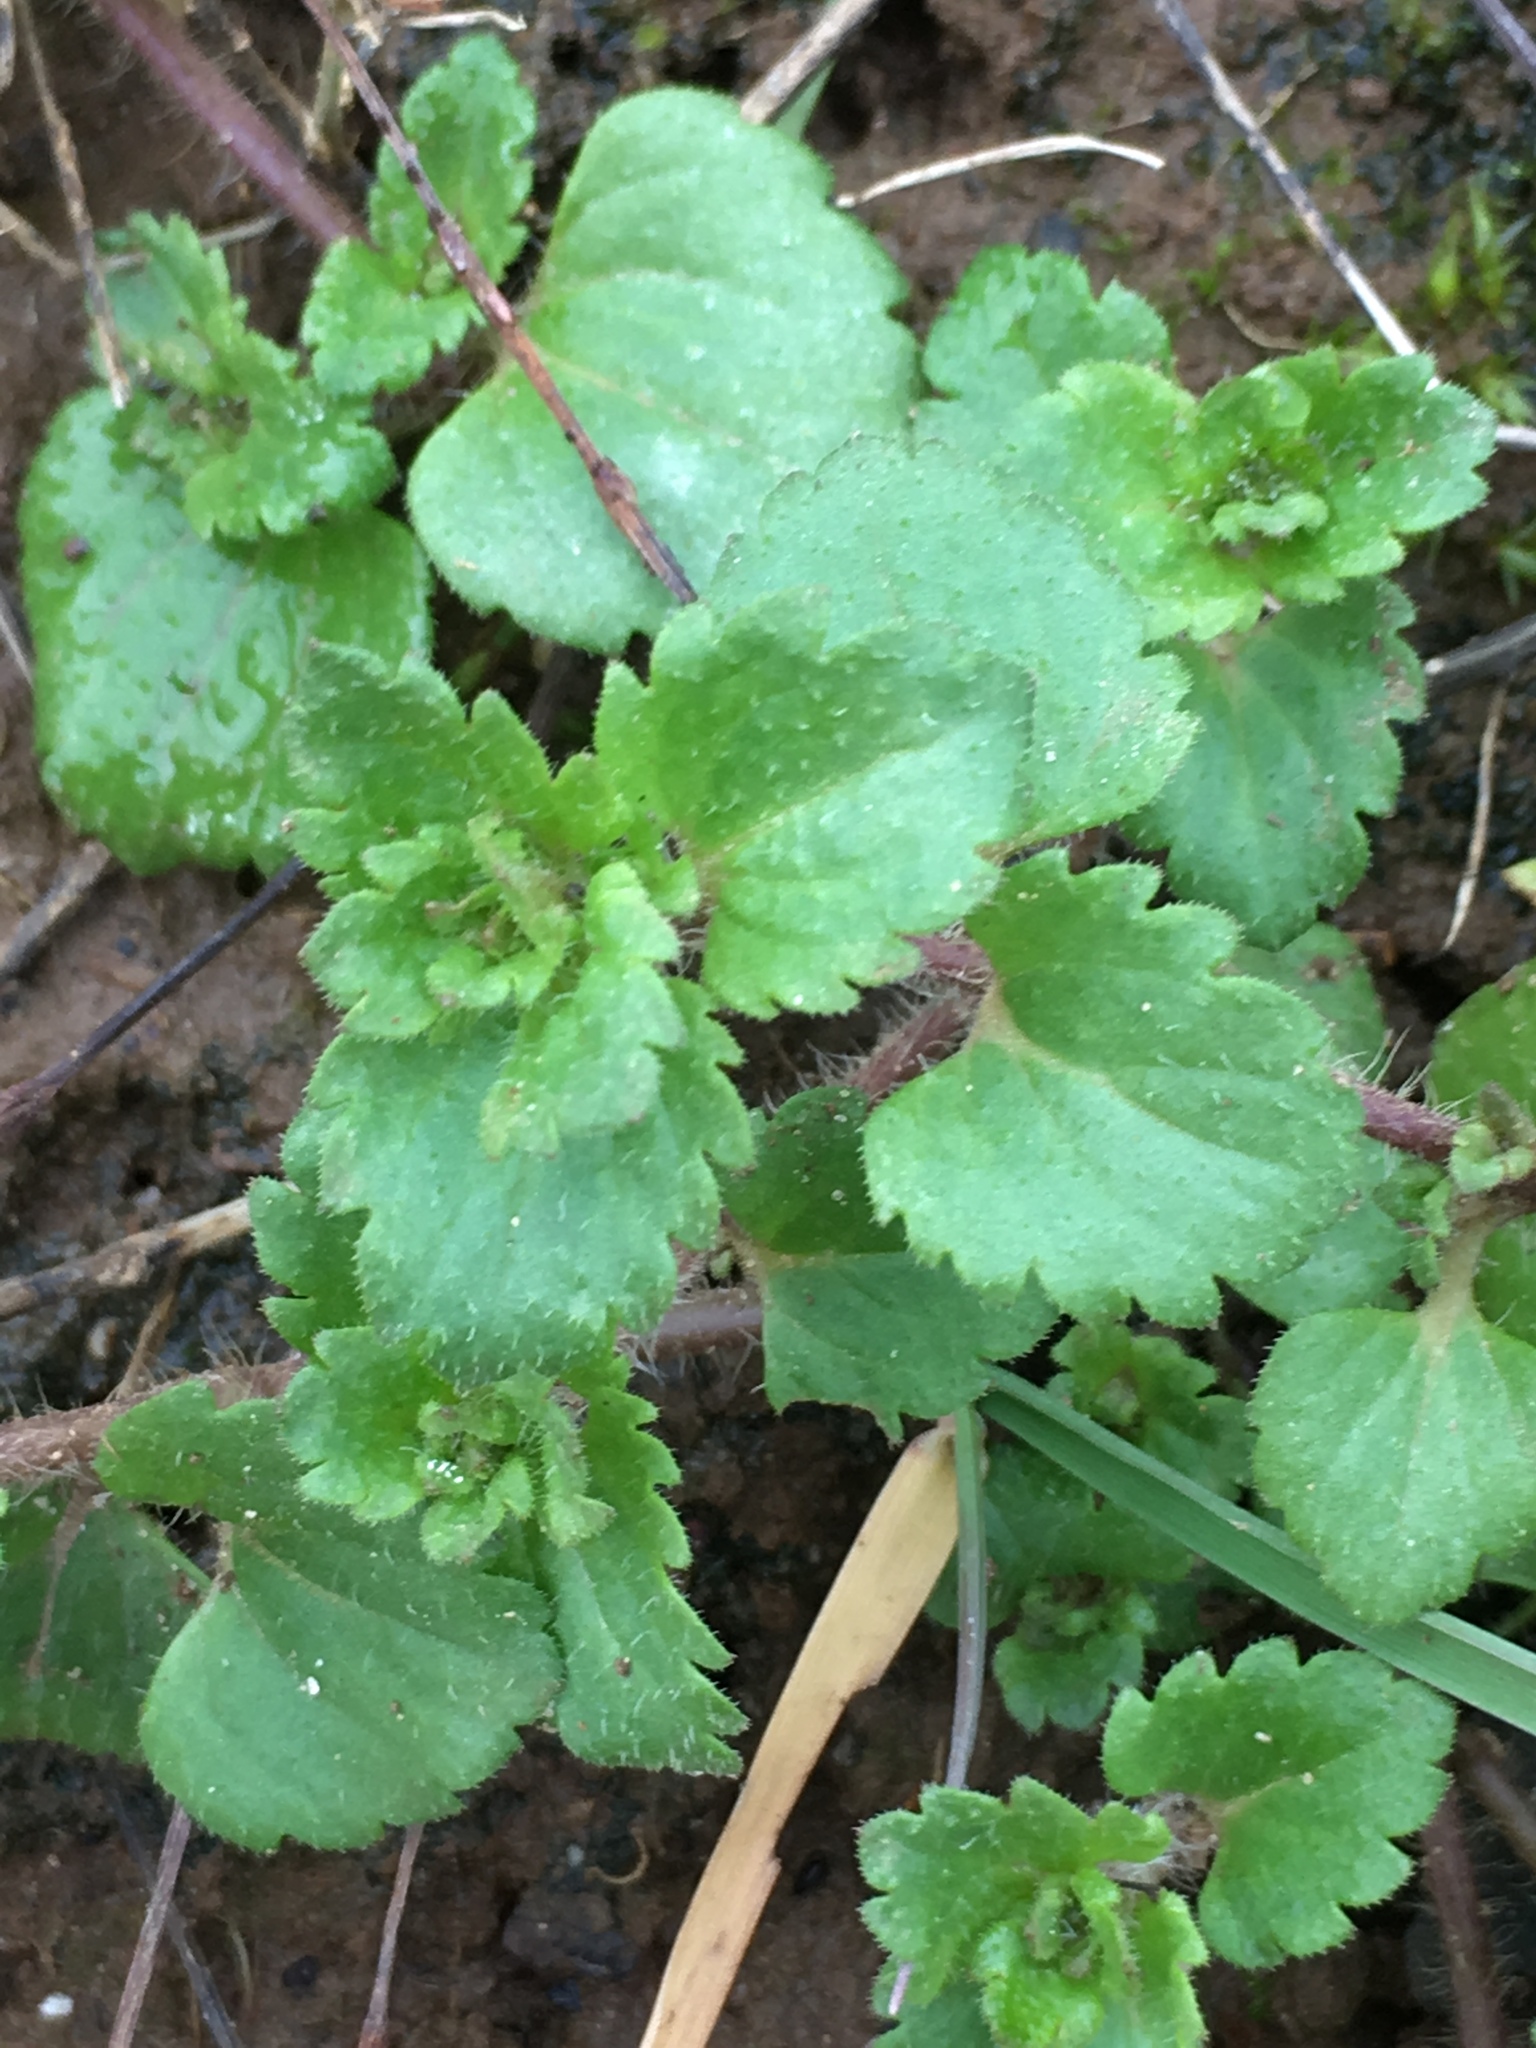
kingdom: Plantae
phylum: Tracheophyta
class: Magnoliopsida
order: Lamiales
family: Plantaginaceae
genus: Veronica
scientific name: Veronica persica
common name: Common field-speedwell
